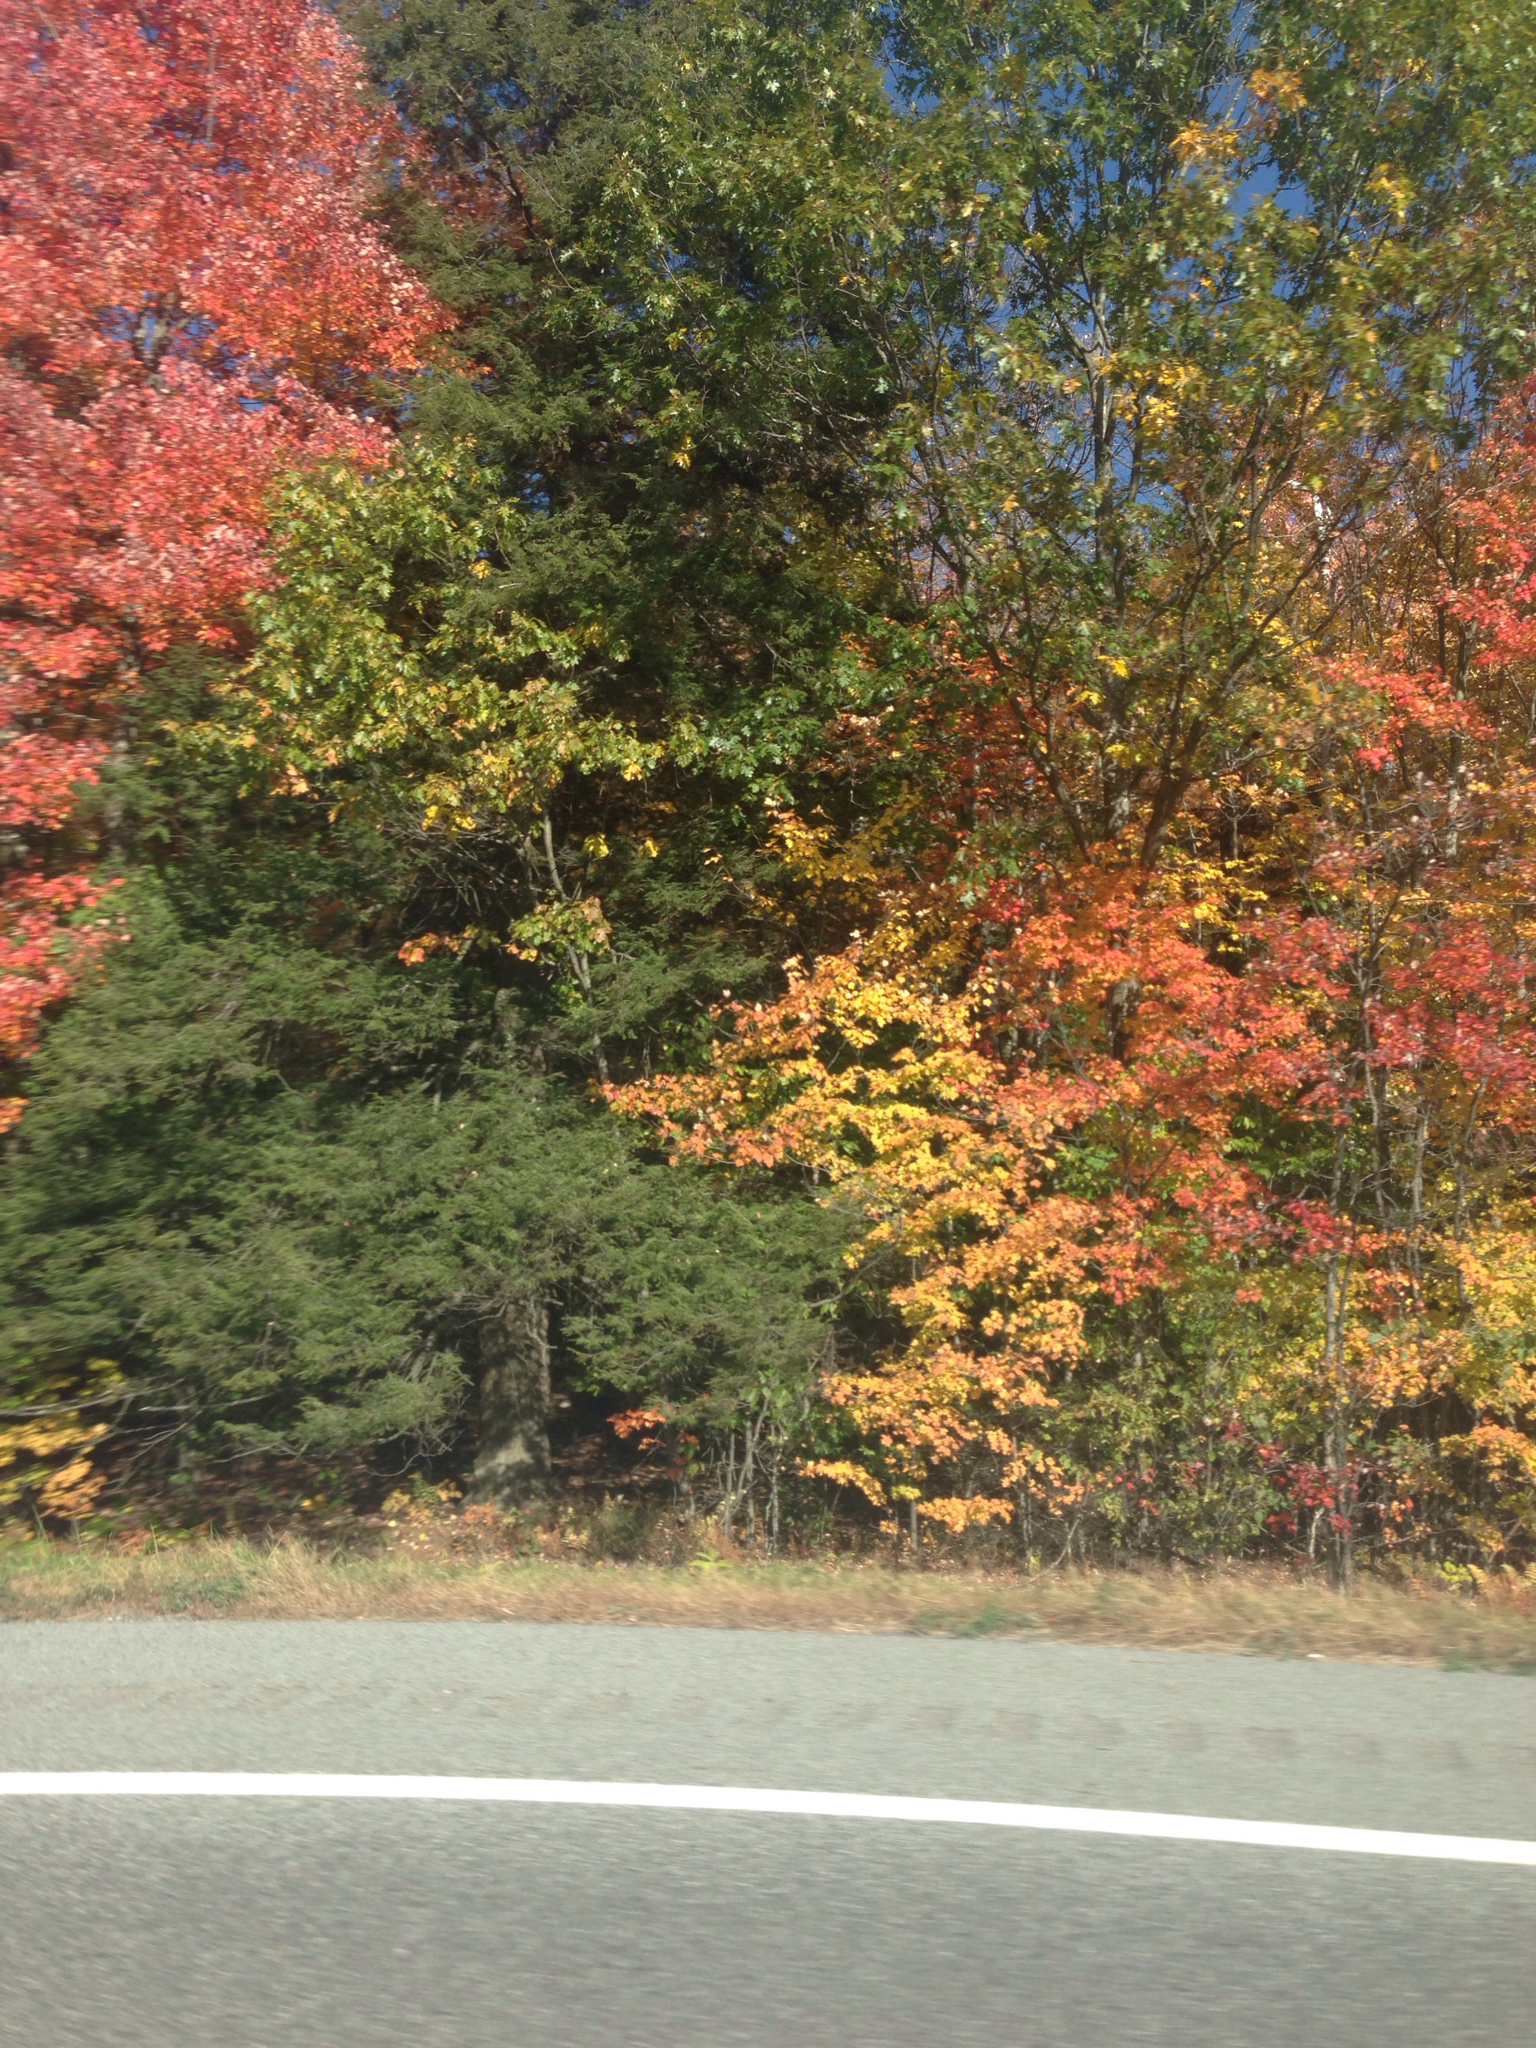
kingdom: Plantae
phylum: Tracheophyta
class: Pinopsida
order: Pinales
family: Pinaceae
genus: Tsuga
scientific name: Tsuga canadensis
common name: Eastern hemlock
